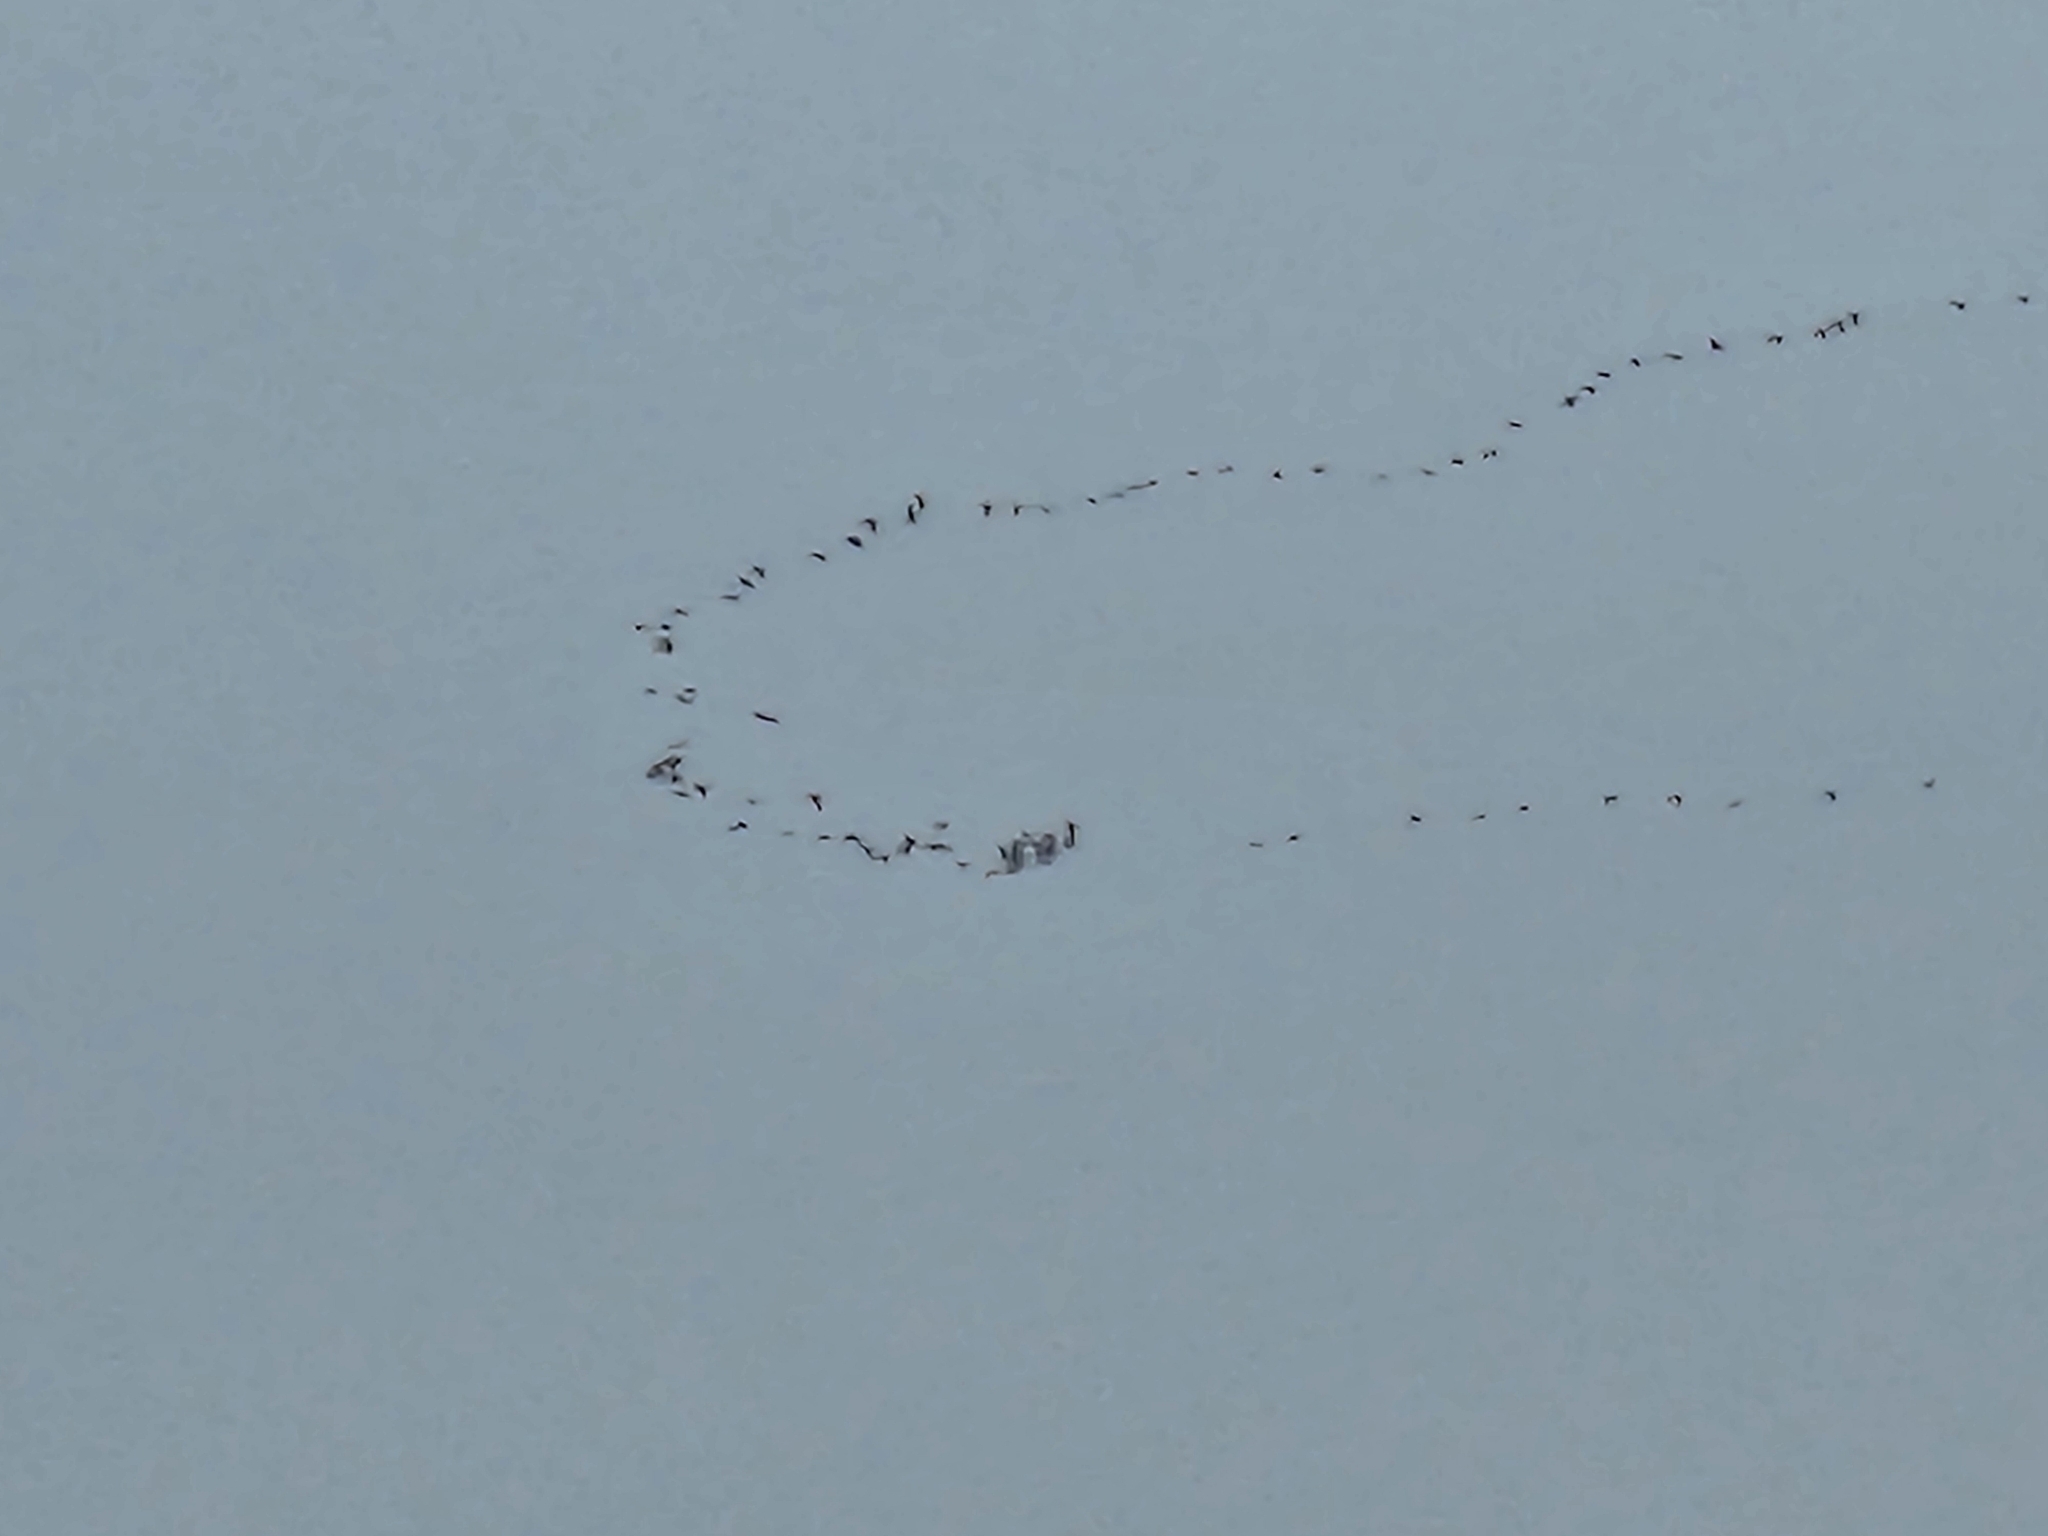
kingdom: Animalia
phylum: Chordata
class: Aves
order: Gruiformes
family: Gruidae
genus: Grus
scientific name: Grus canadensis
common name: Sandhill crane
